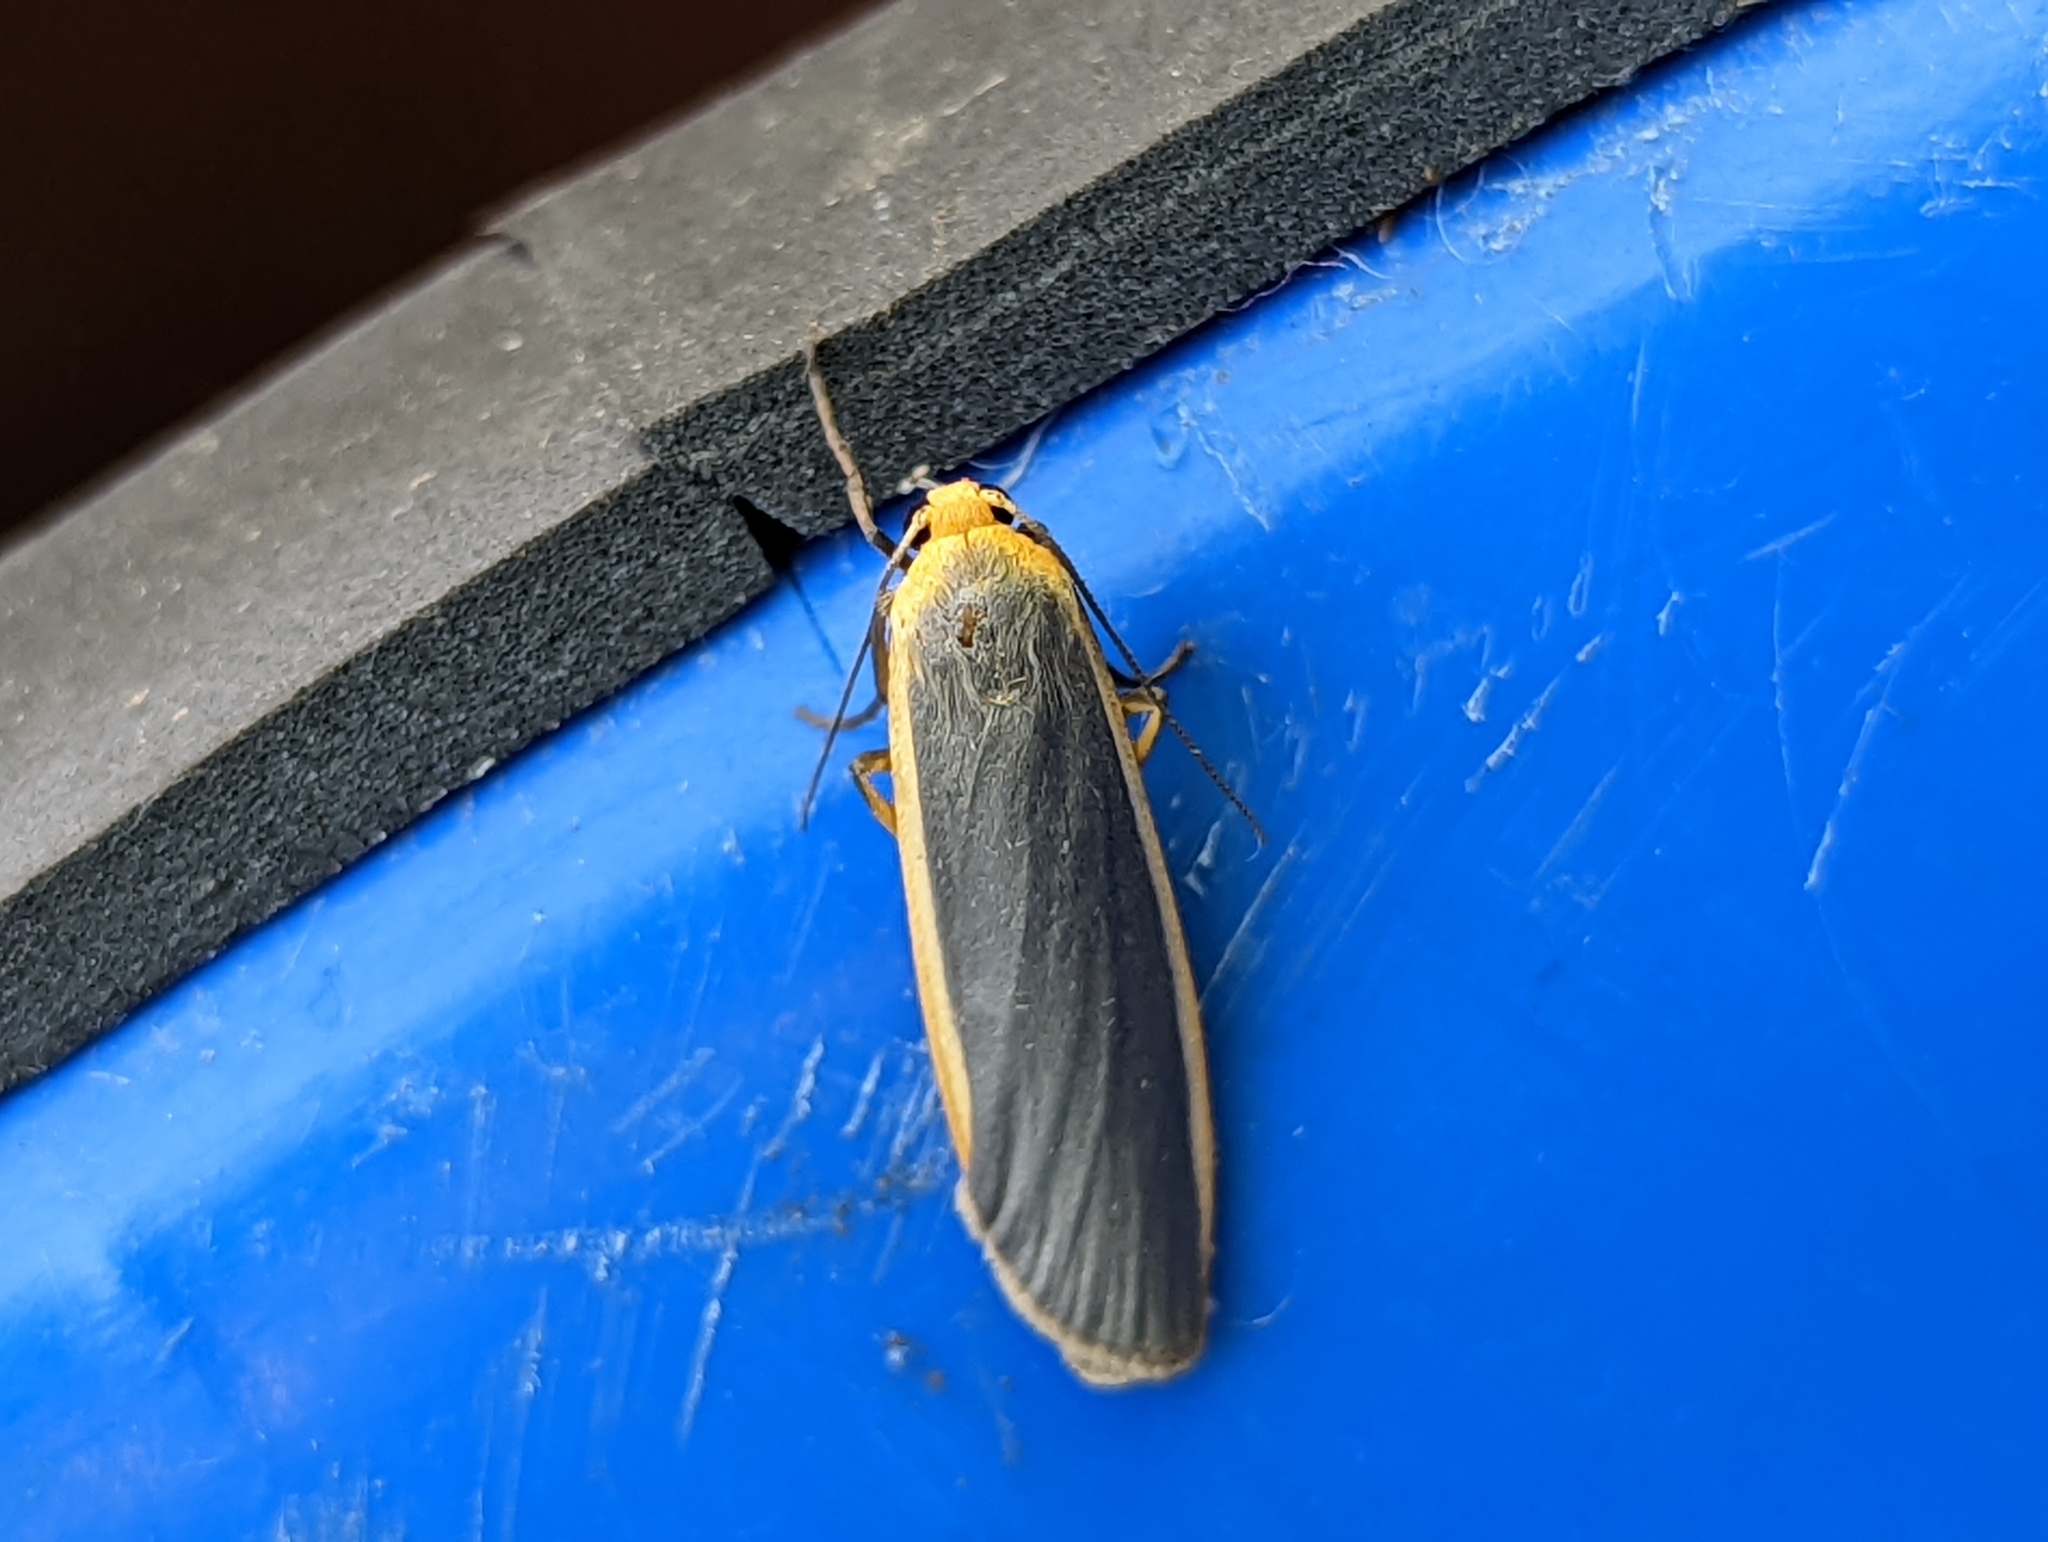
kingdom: Animalia
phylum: Arthropoda
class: Insecta
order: Lepidoptera
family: Erebidae
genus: Nyea
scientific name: Nyea lurideola
